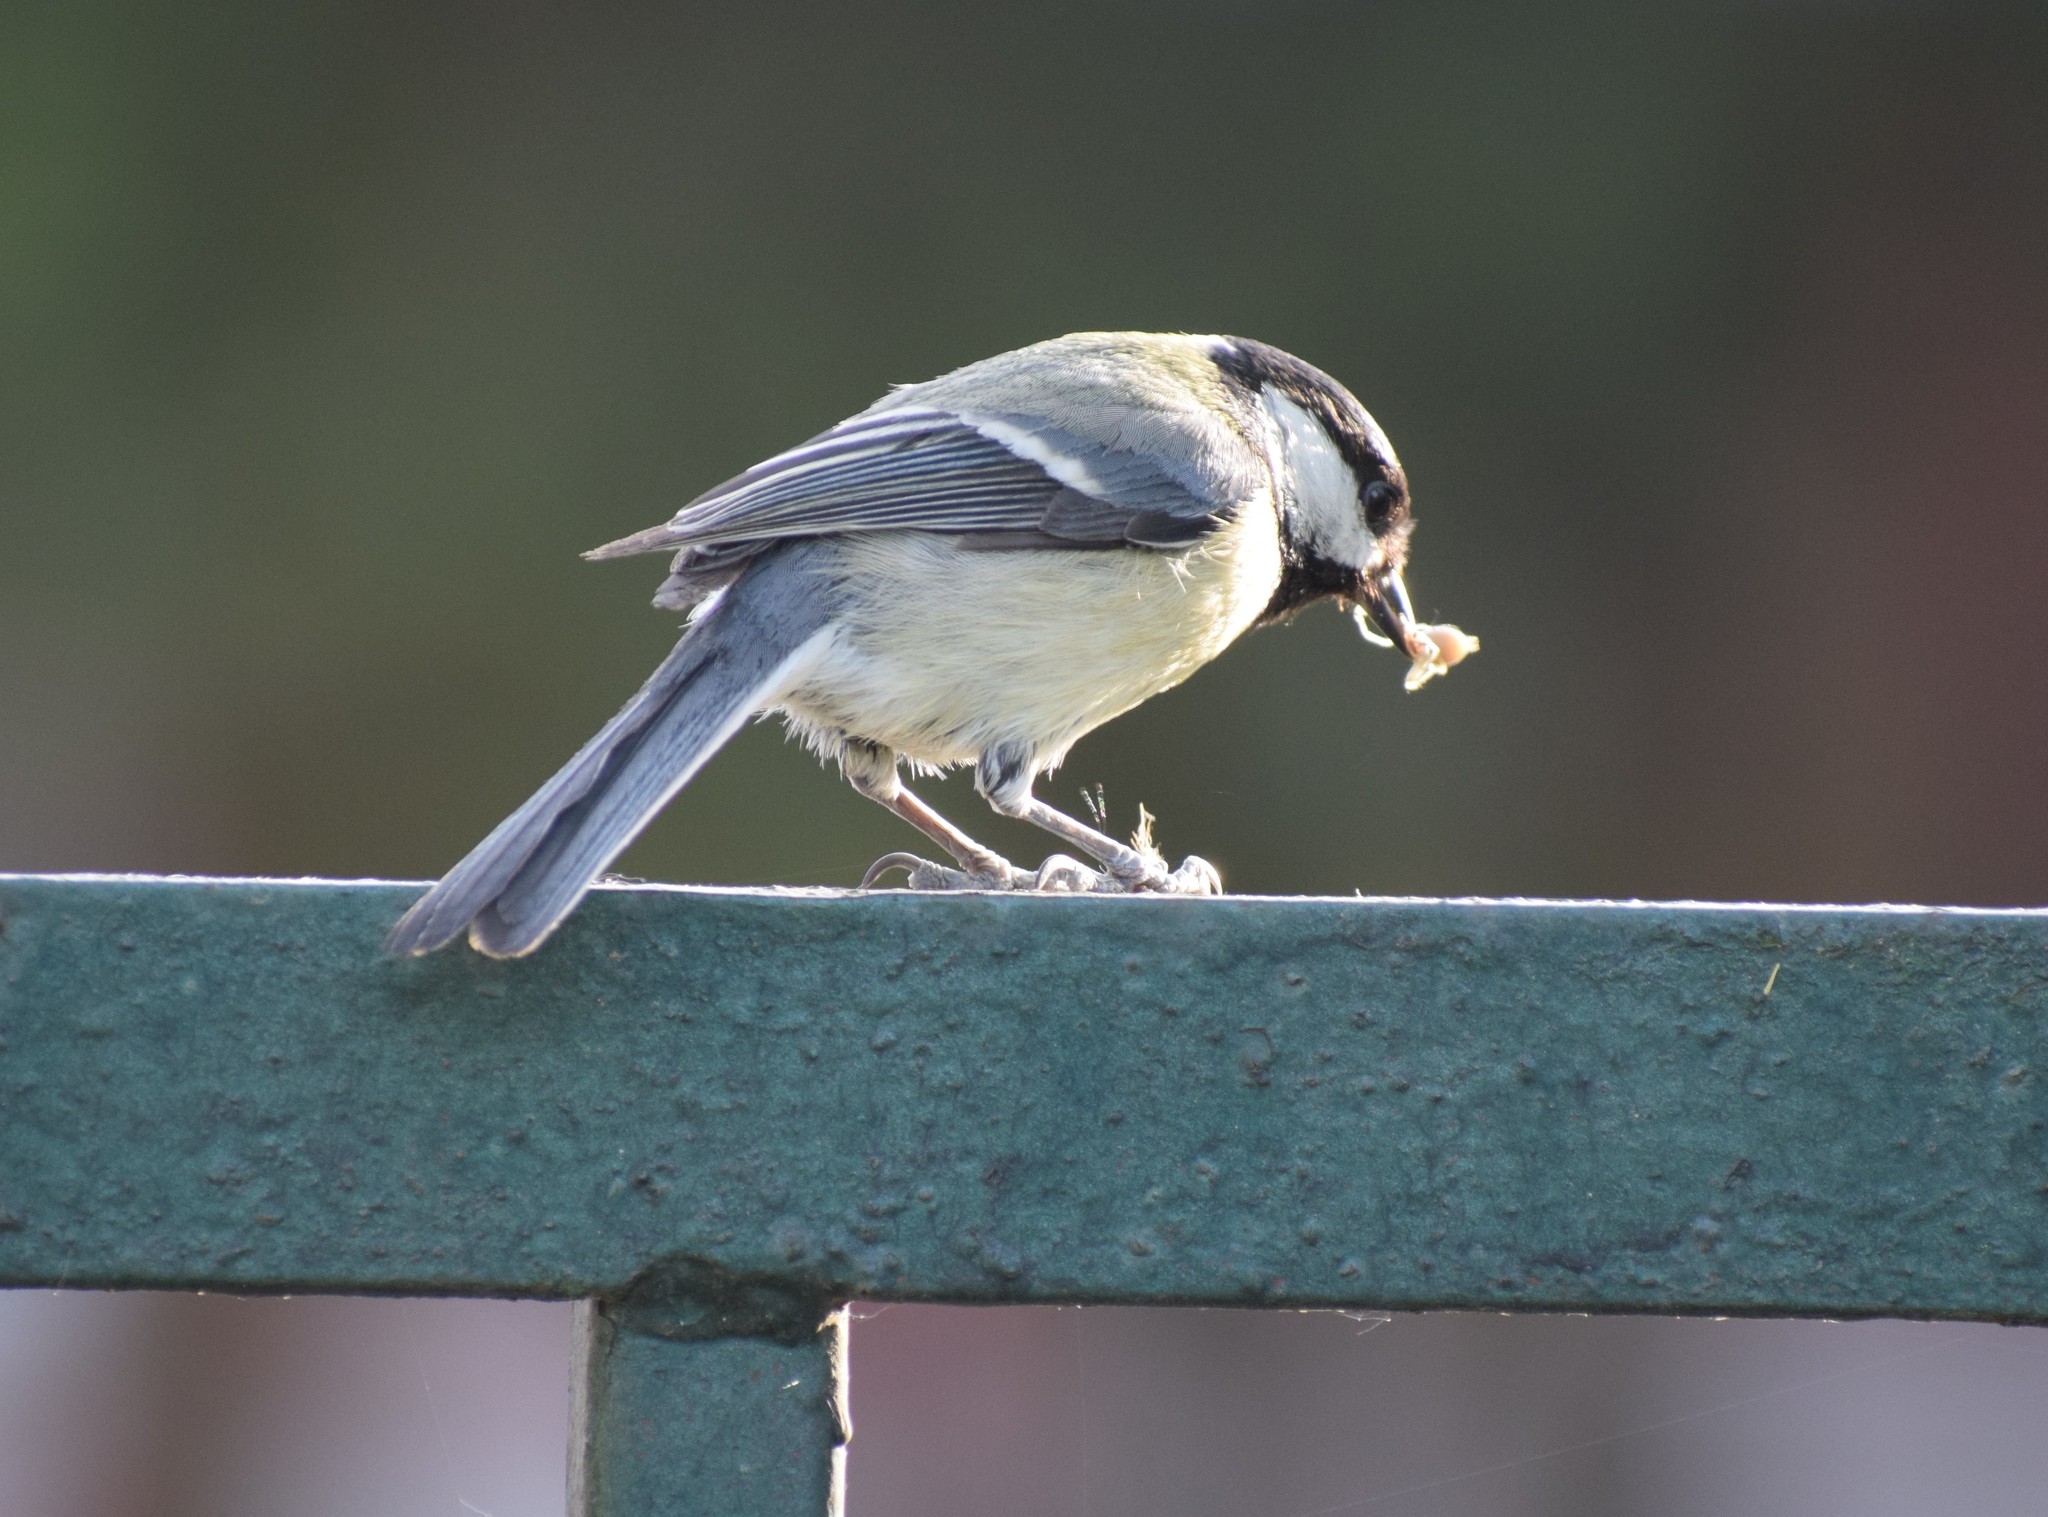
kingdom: Animalia
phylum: Chordata
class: Aves
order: Passeriformes
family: Paridae
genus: Parus
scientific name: Parus major
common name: Great tit
